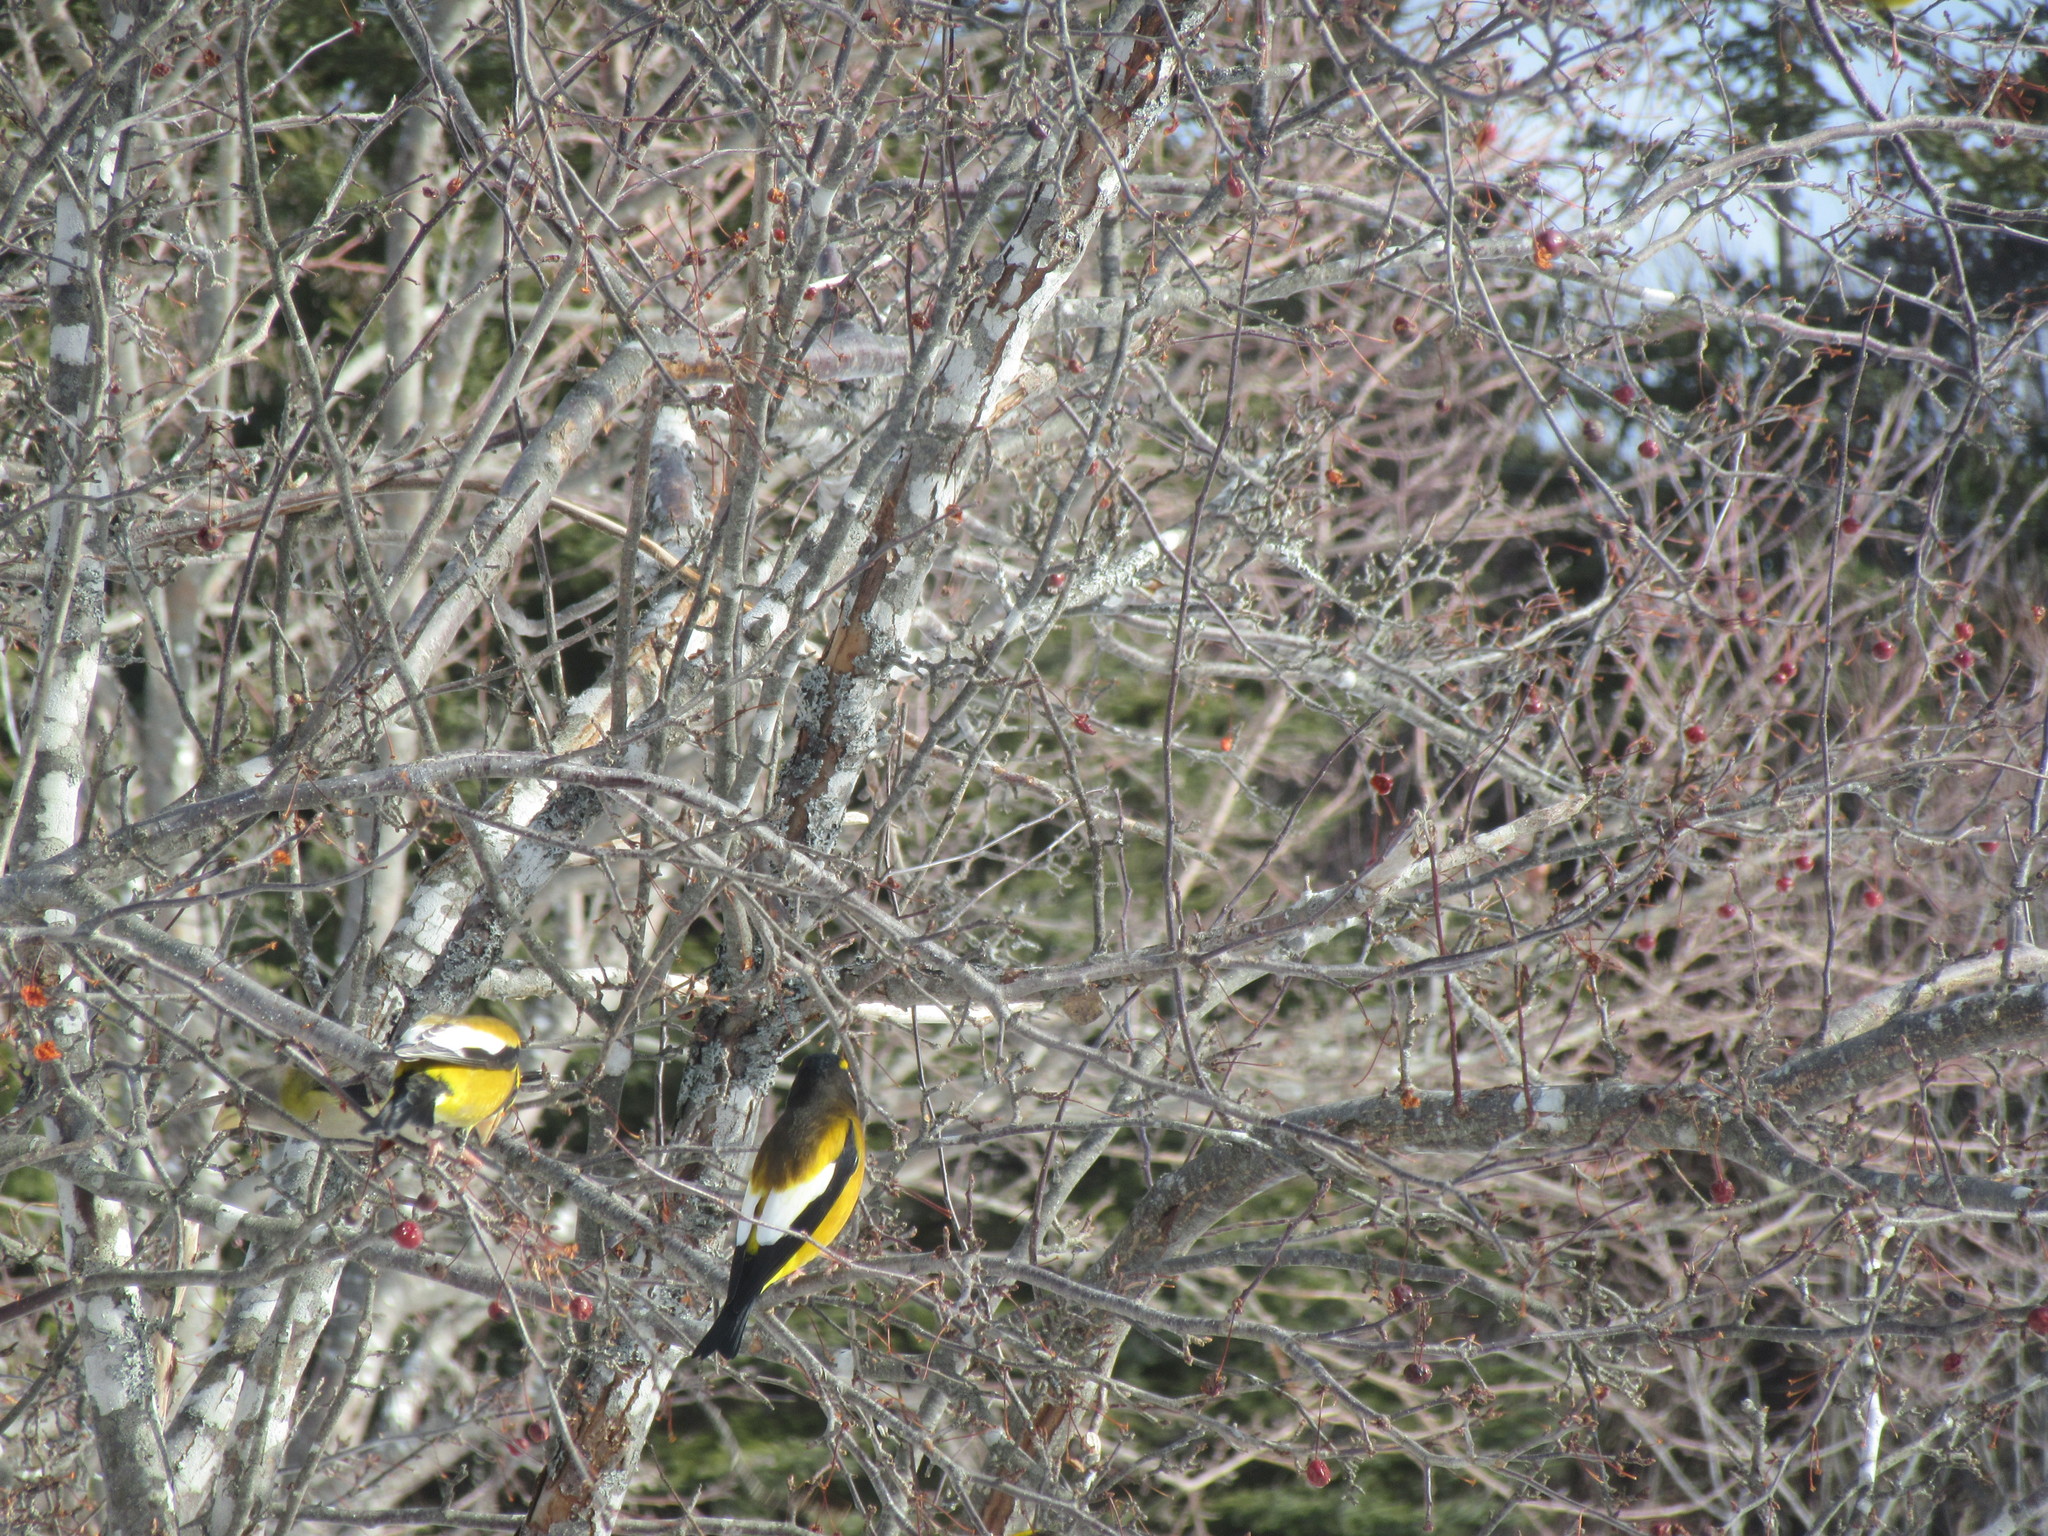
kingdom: Animalia
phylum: Chordata
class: Aves
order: Passeriformes
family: Fringillidae
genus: Hesperiphona
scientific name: Hesperiphona vespertina
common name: Evening grosbeak
